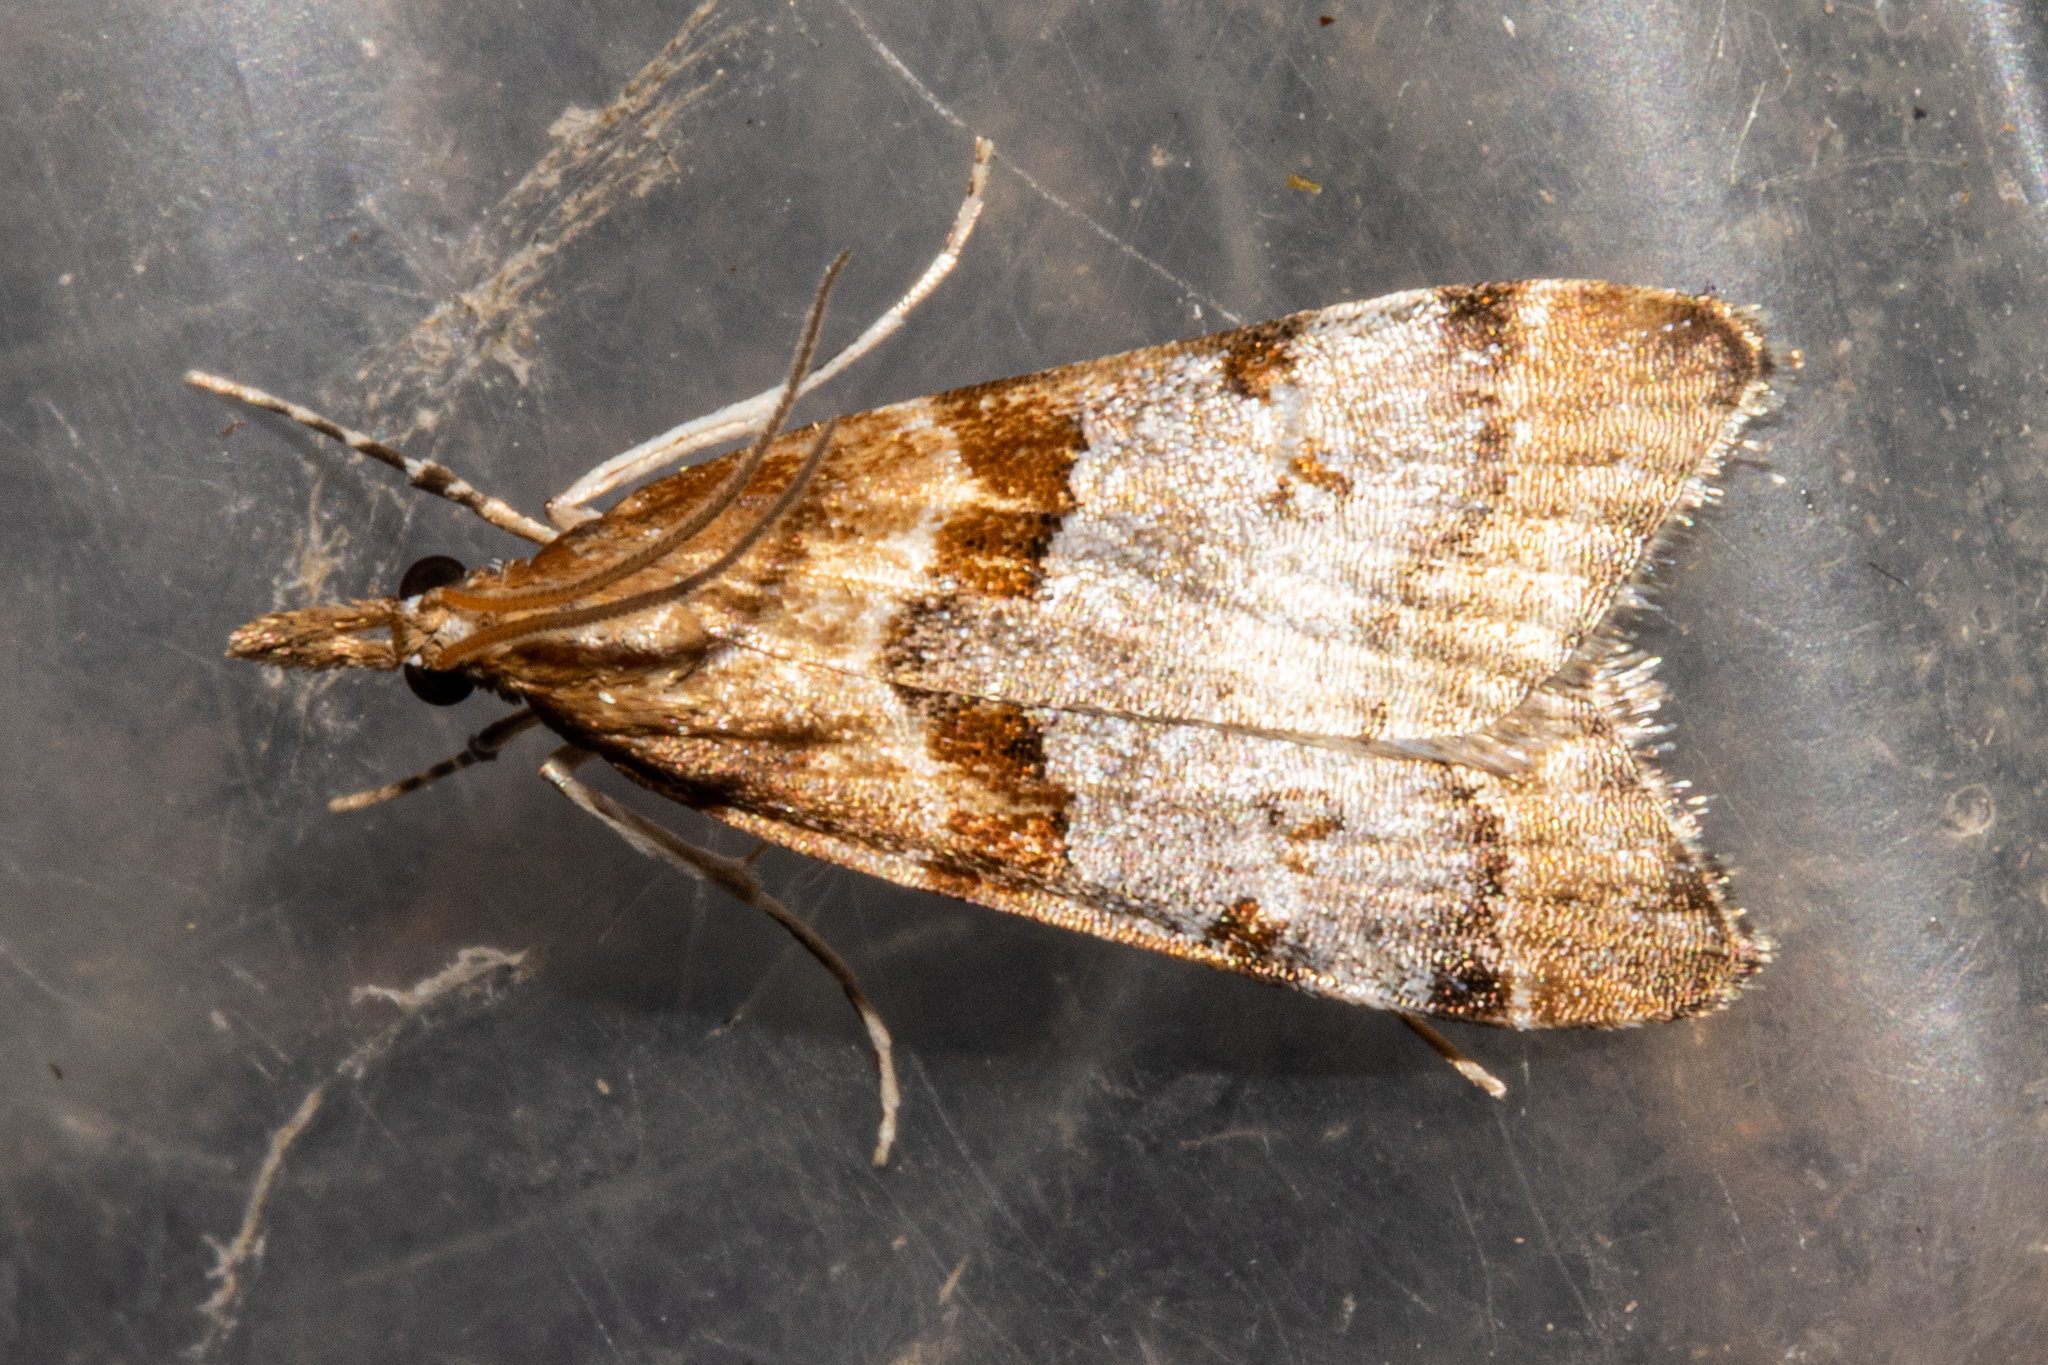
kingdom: Animalia
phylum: Arthropoda
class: Insecta
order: Lepidoptera
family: Crambidae
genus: Antiscopa
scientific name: Antiscopa acompa
